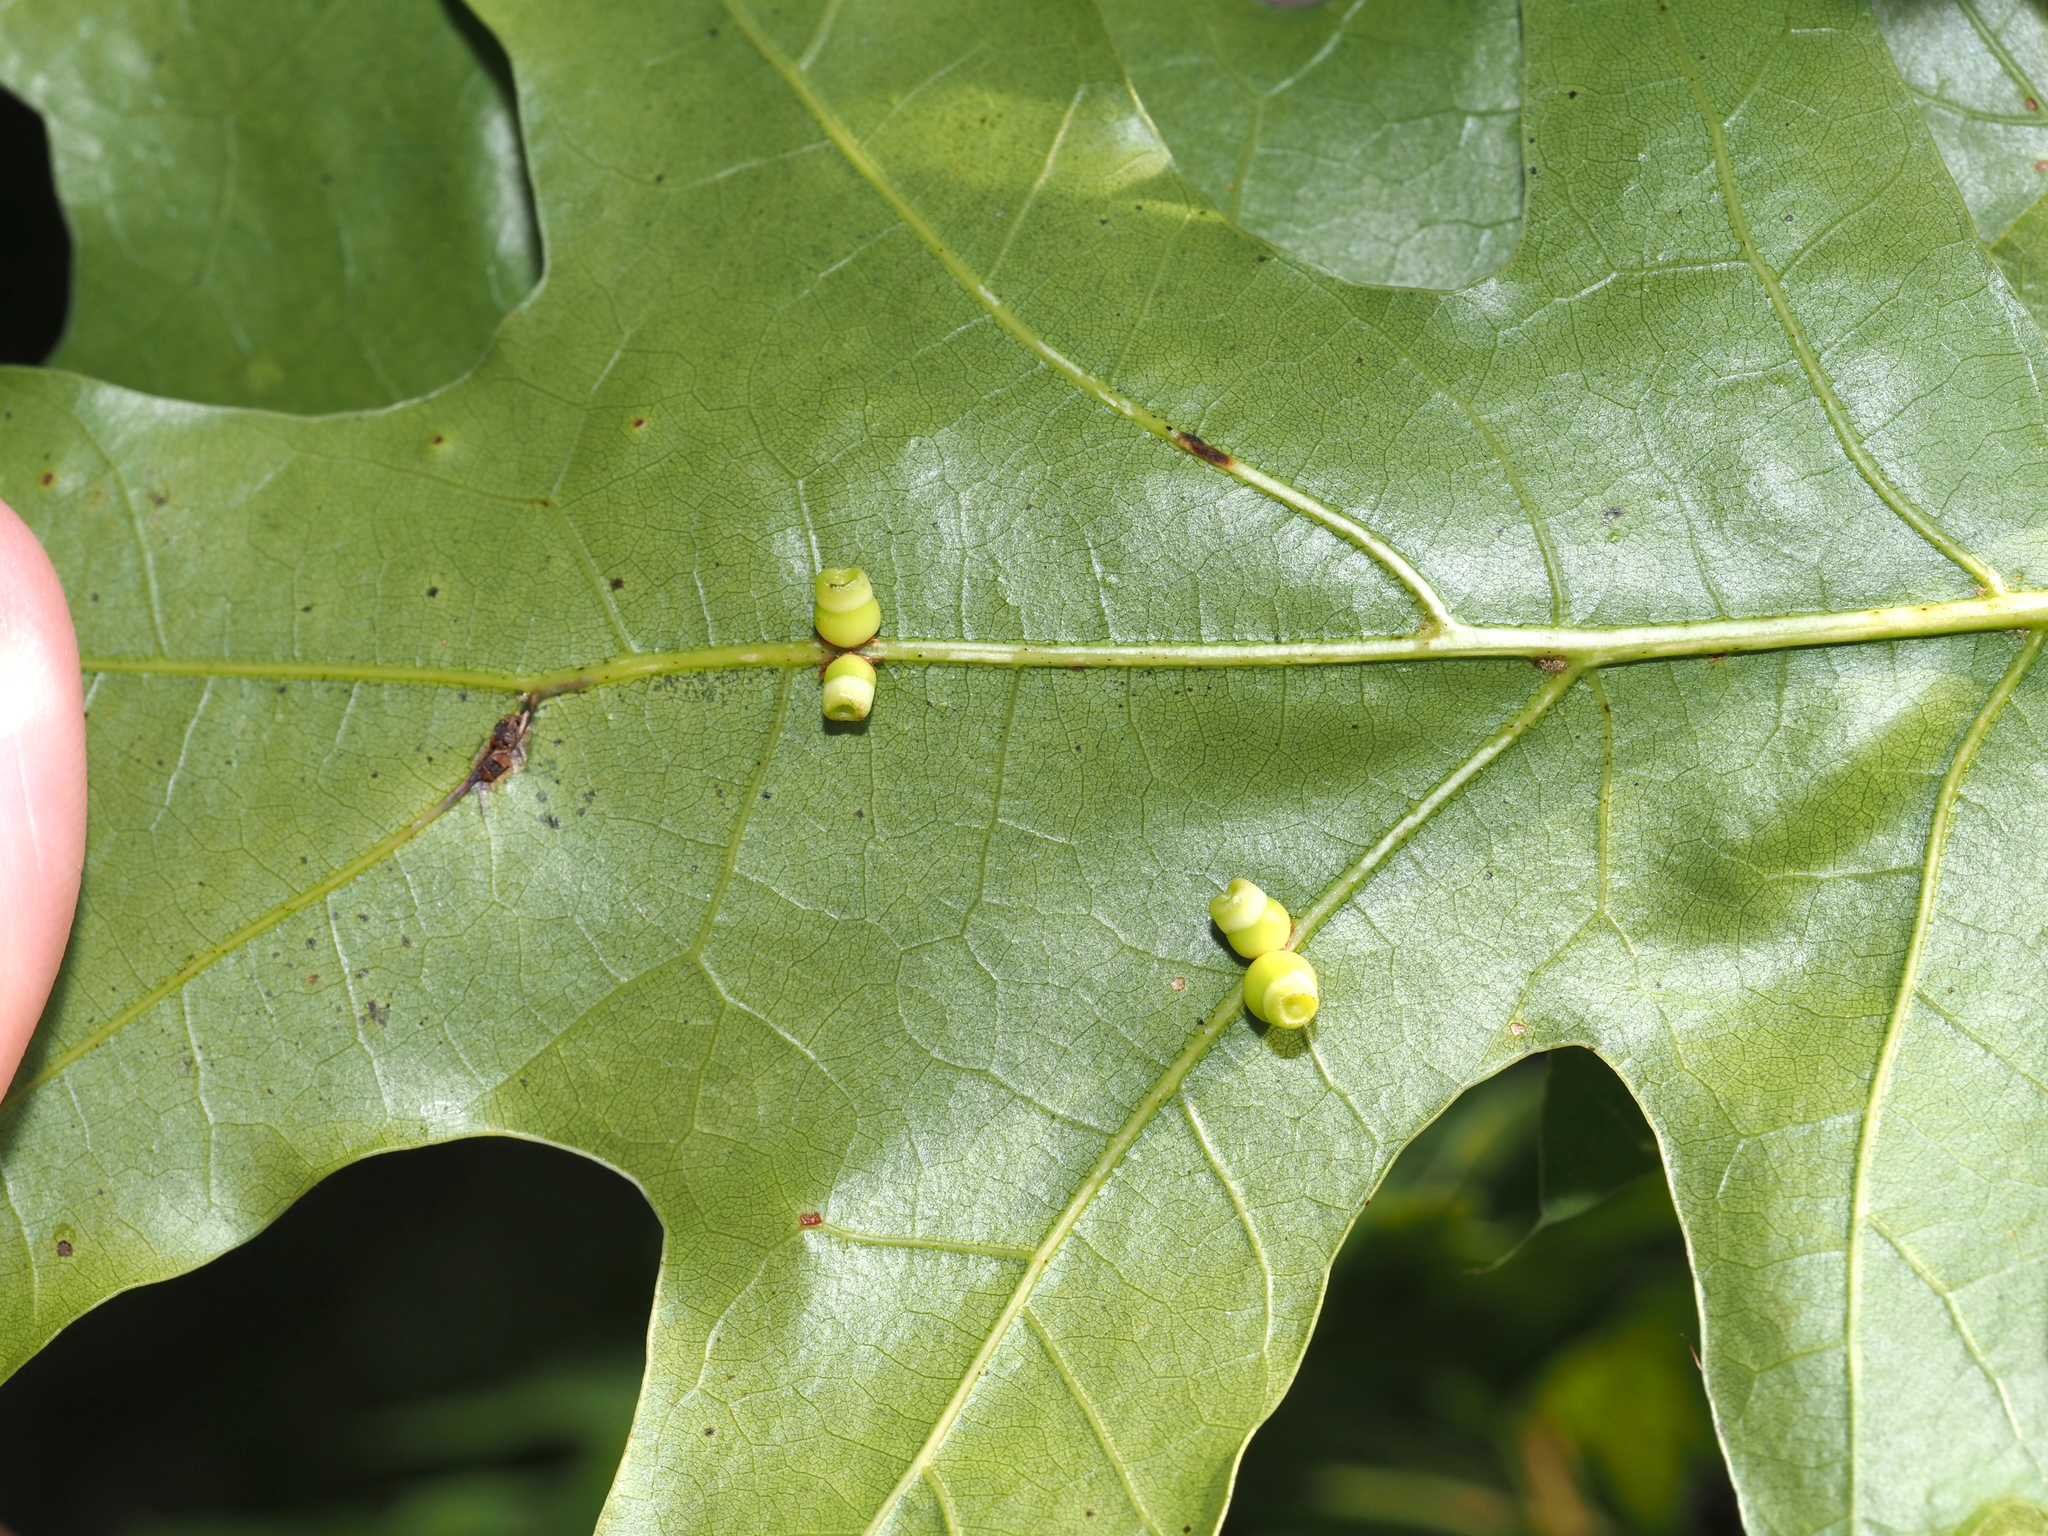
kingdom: Animalia
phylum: Arthropoda
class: Insecta
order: Hymenoptera
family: Cynipidae
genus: Kokkocynips
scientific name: Kokkocynips rileyi
